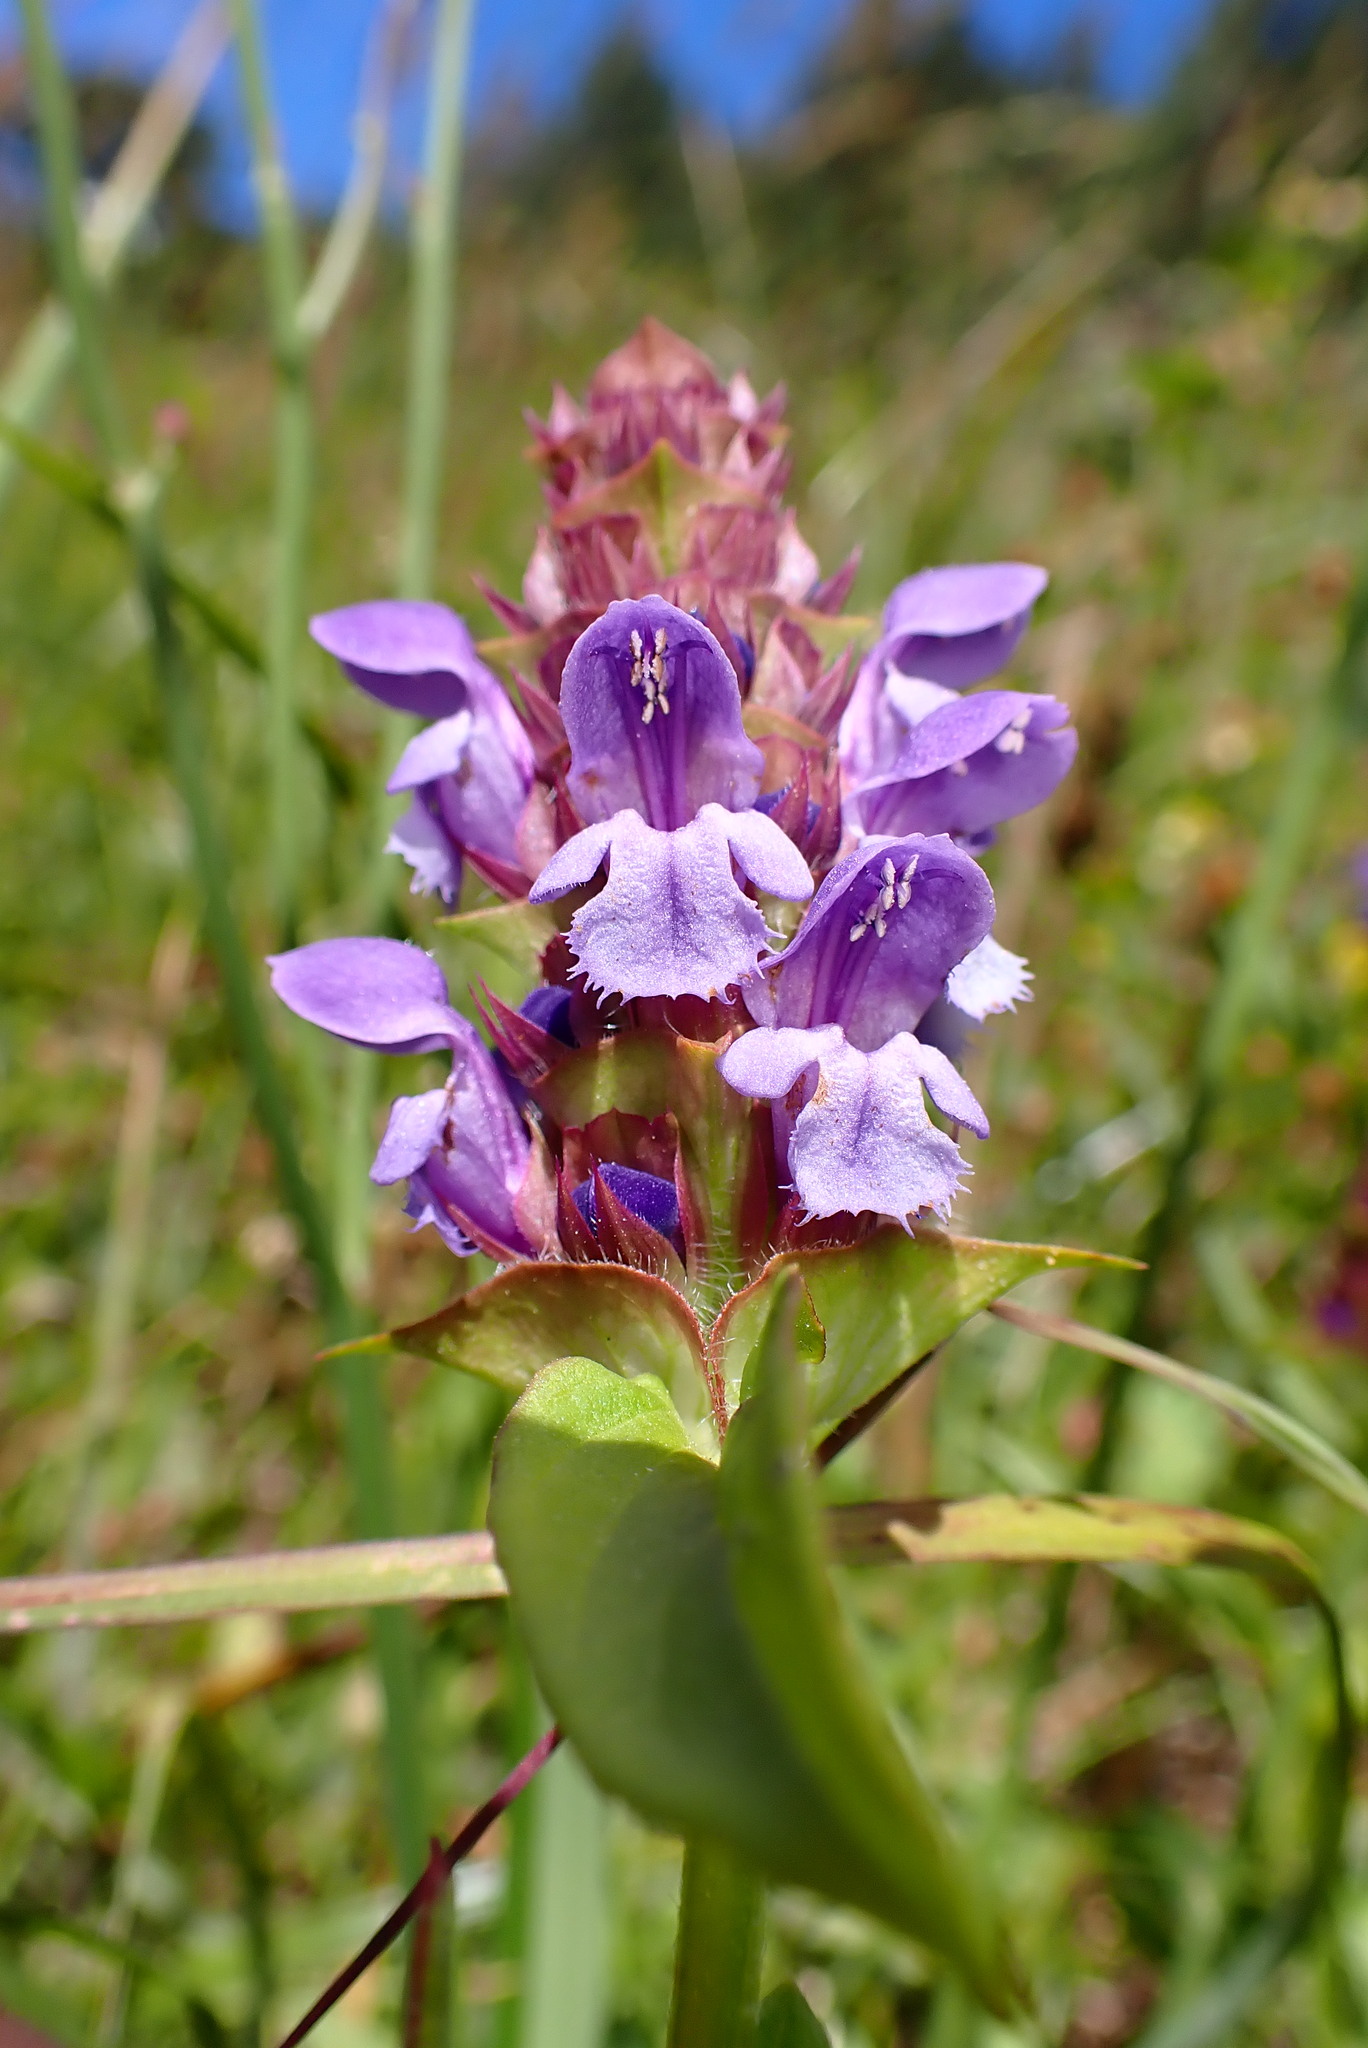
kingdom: Plantae
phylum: Tracheophyta
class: Magnoliopsida
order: Lamiales
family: Lamiaceae
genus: Prunella
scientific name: Prunella vulgaris
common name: Heal-all
